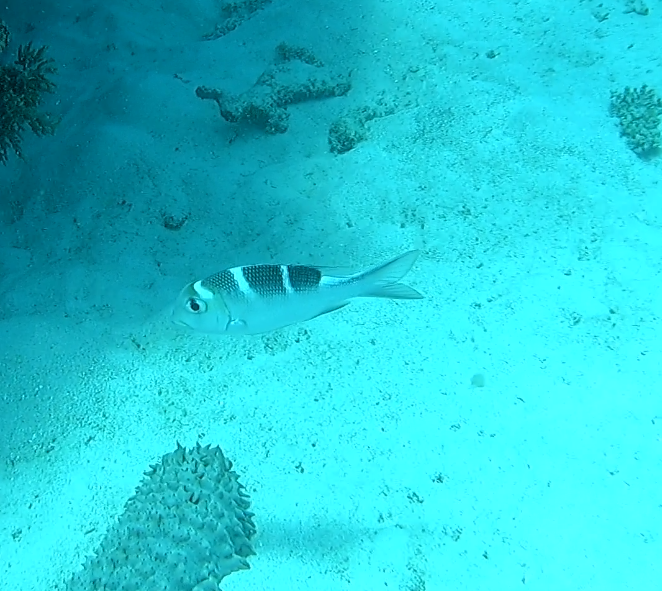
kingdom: Animalia
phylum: Chordata
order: Perciformes
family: Lethrinidae
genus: Monotaxis
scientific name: Monotaxis grandoculis
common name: Bigeye emperor
